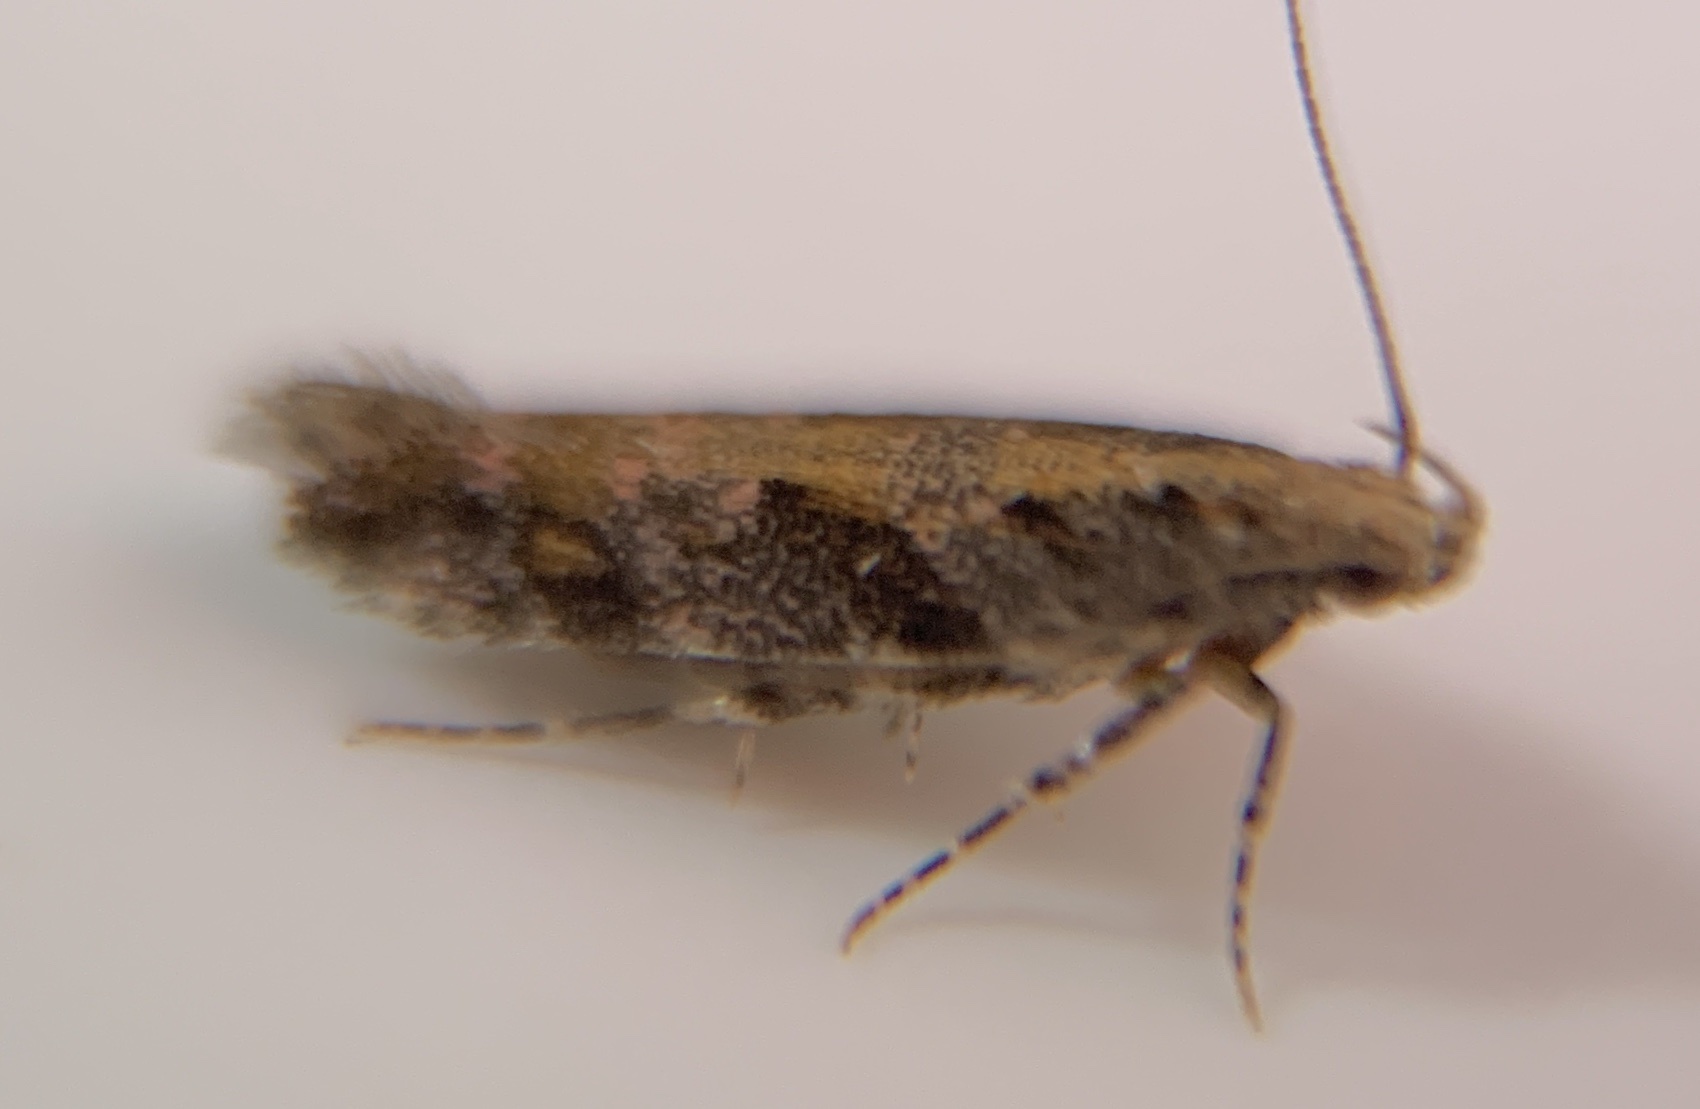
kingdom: Animalia
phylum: Arthropoda
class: Insecta
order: Lepidoptera
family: Gelechiidae
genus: Aristotelia
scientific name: Aristotelia rubidella
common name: Ruby aristotelia moth
